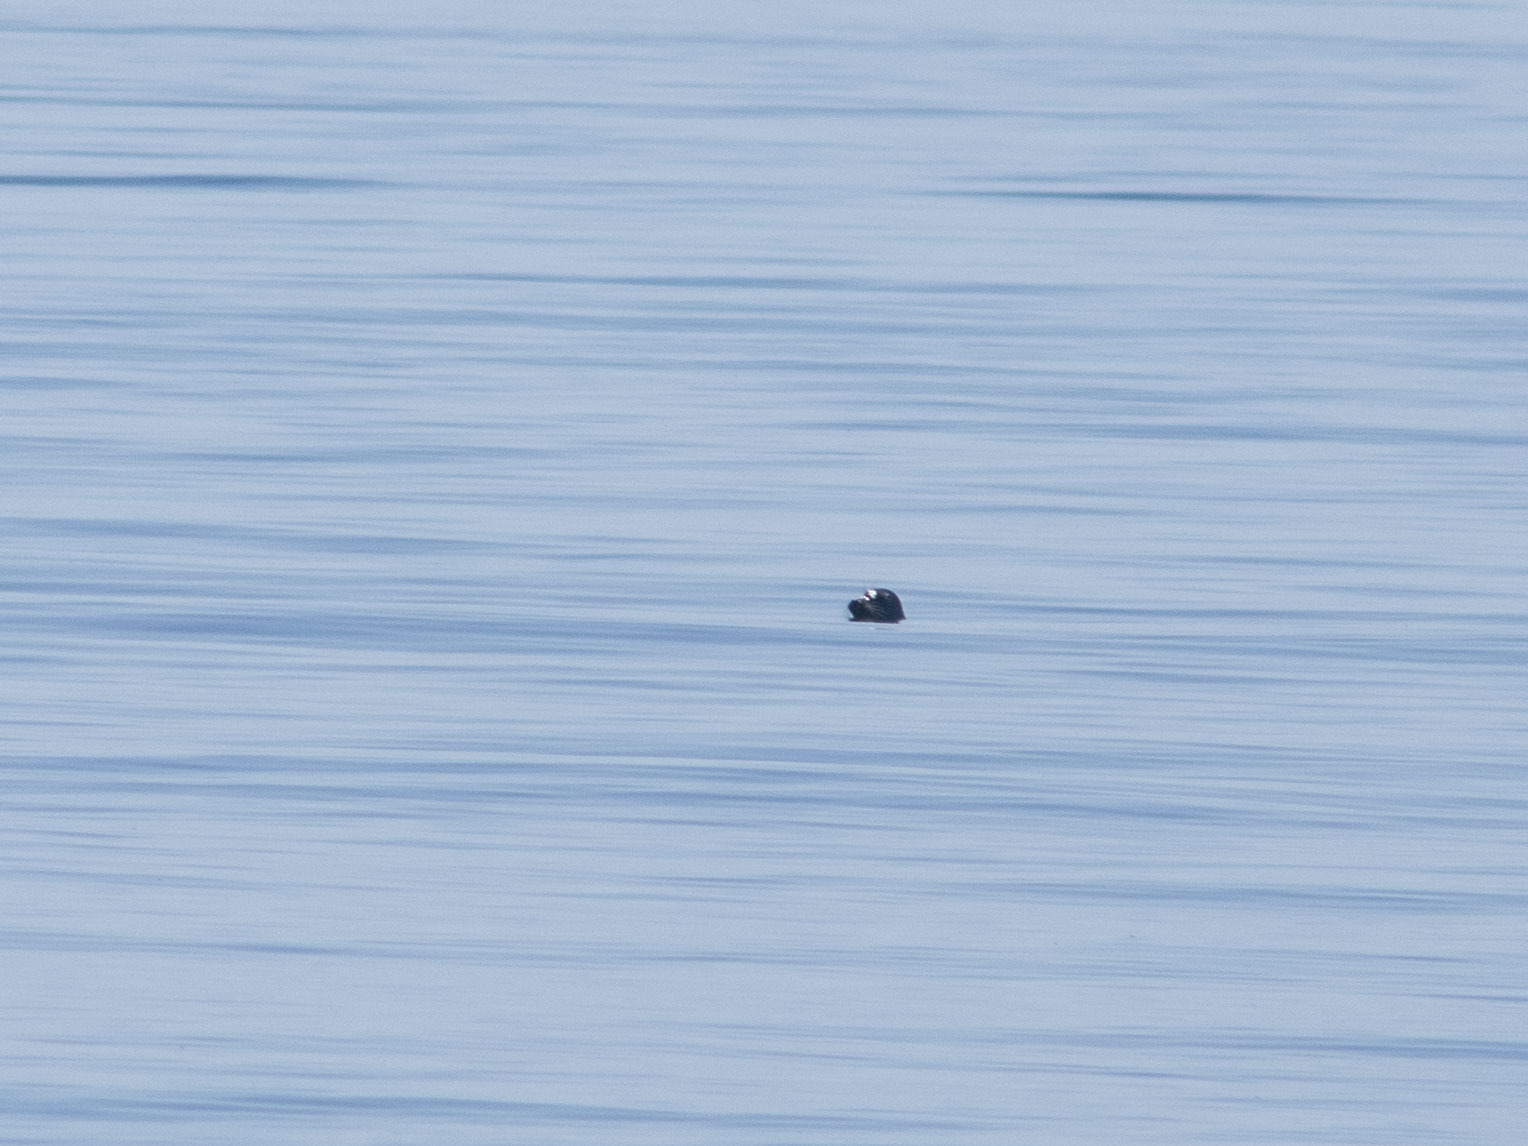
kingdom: Animalia
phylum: Chordata
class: Mammalia
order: Carnivora
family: Phocidae
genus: Pusa
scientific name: Pusa sibirica
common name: Baikal seal
